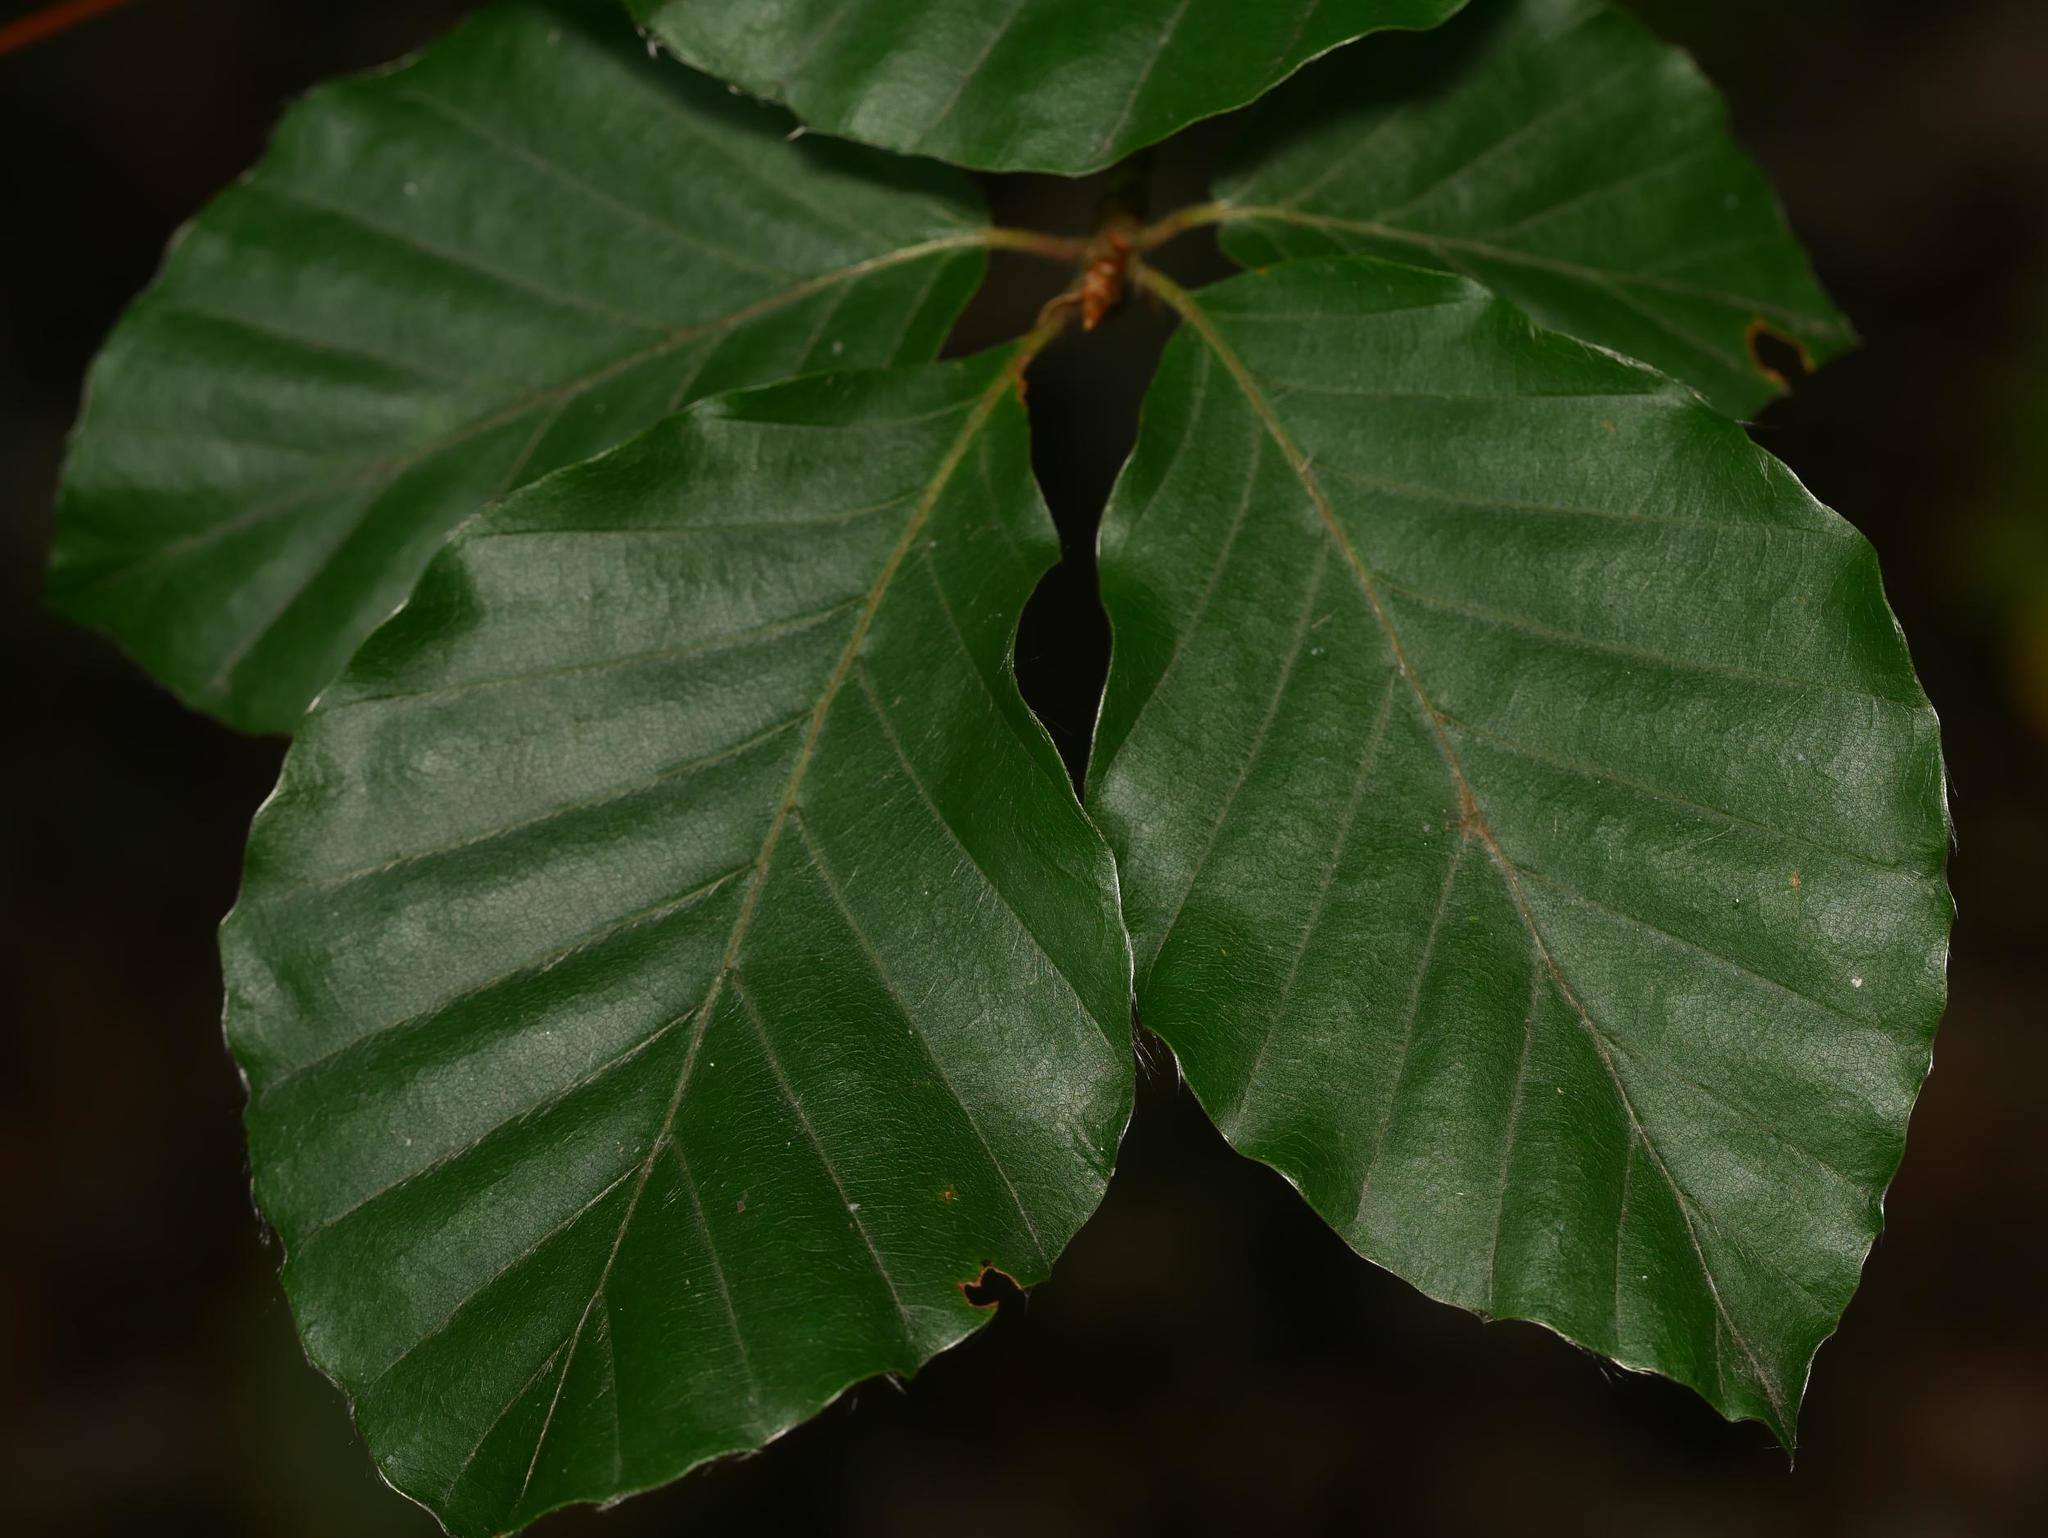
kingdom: Plantae
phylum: Tracheophyta
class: Magnoliopsida
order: Fagales
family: Fagaceae
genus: Fagus
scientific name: Fagus sylvatica
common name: Beech
